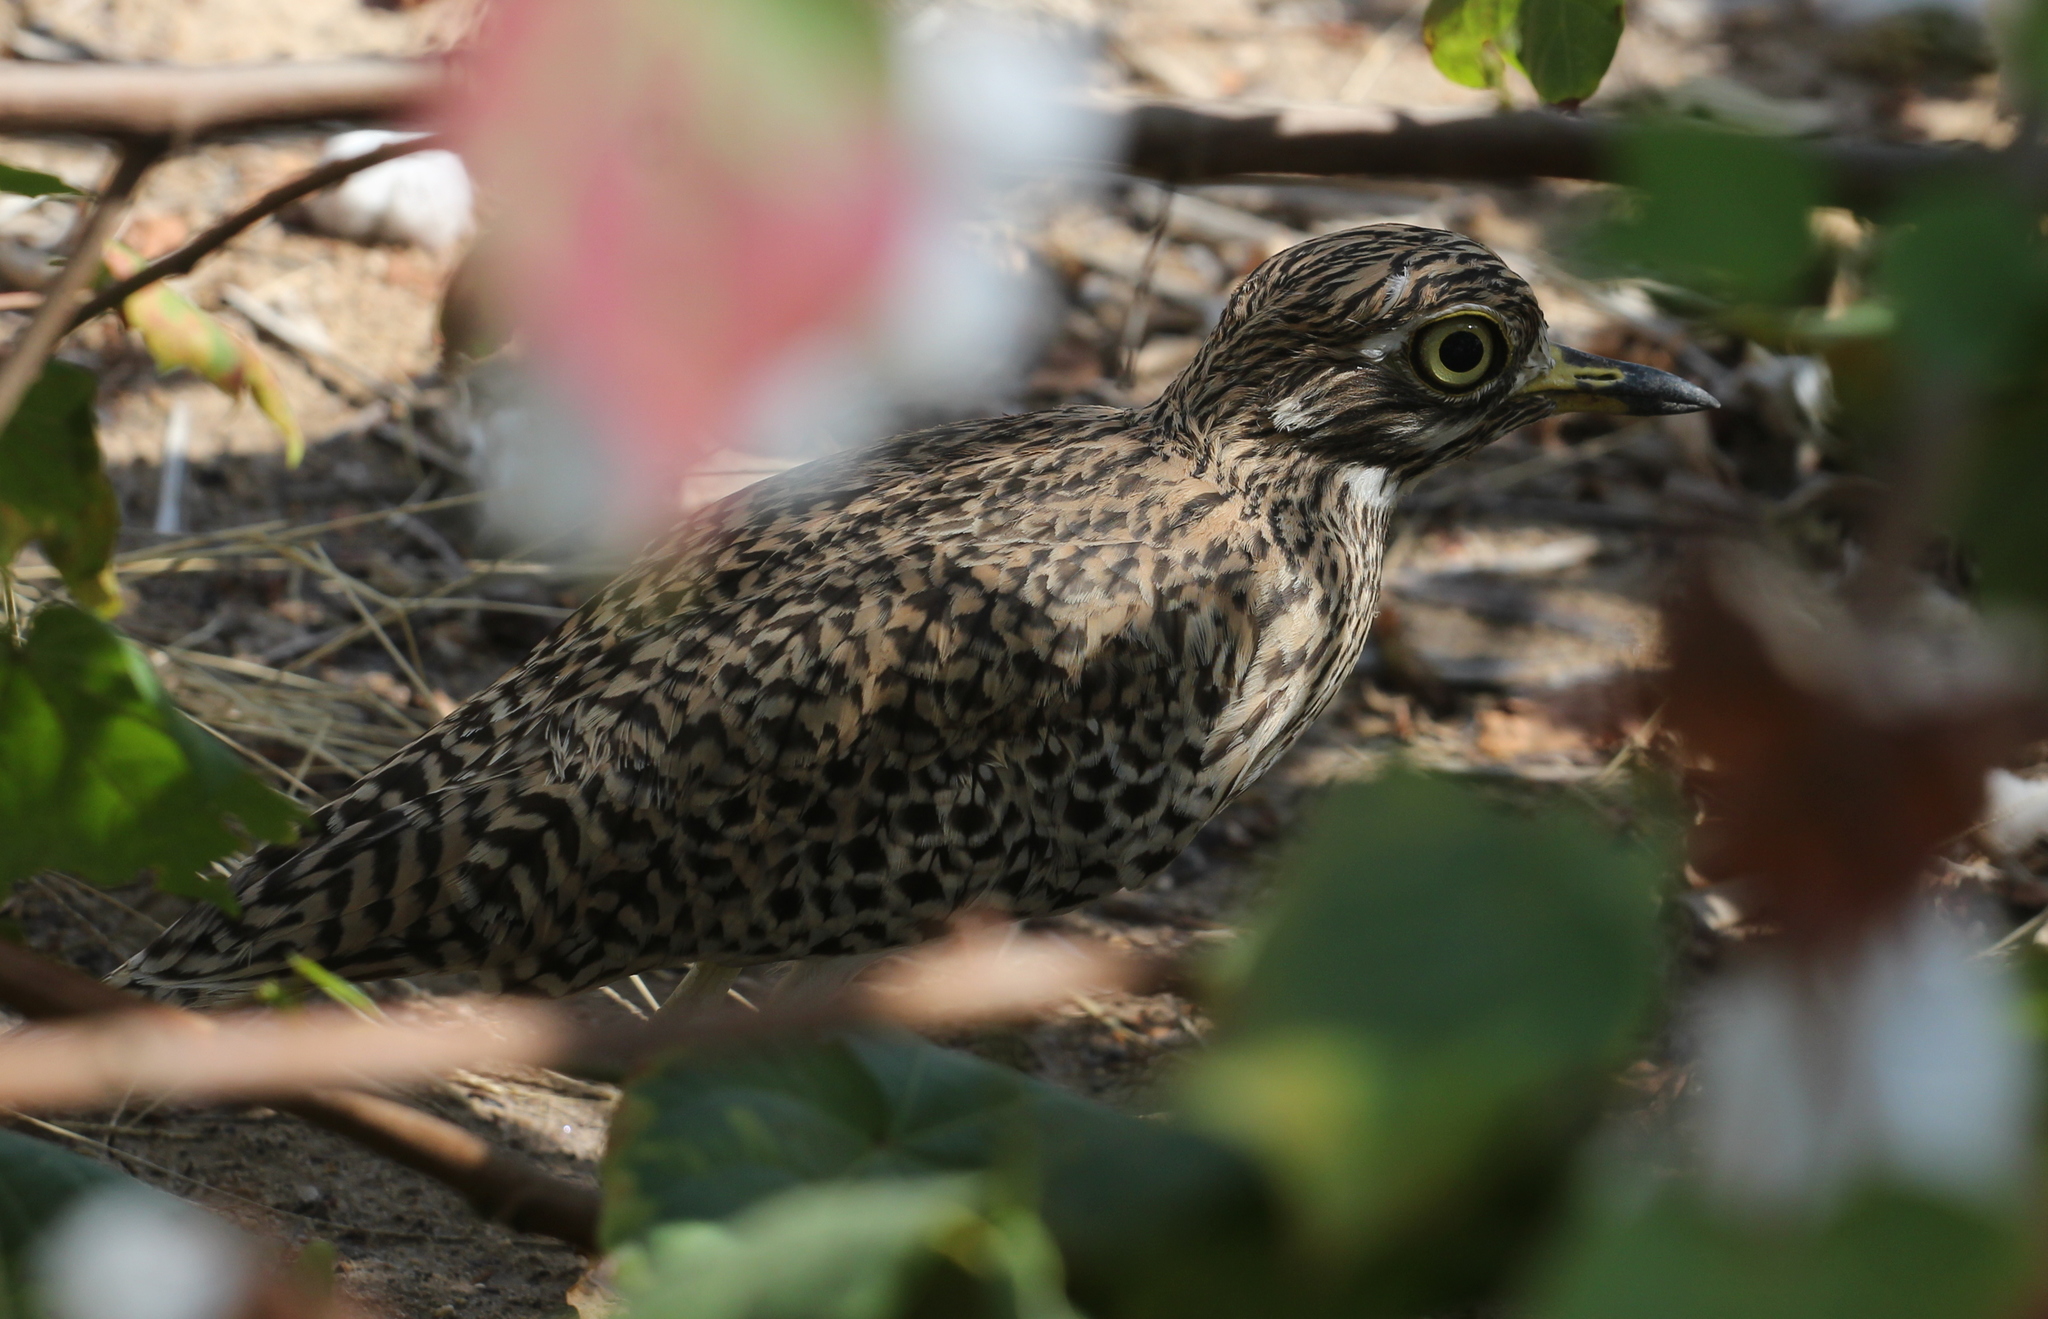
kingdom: Animalia
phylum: Chordata
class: Aves
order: Charadriiformes
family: Burhinidae
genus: Burhinus
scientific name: Burhinus capensis
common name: Spotted thick-knee
